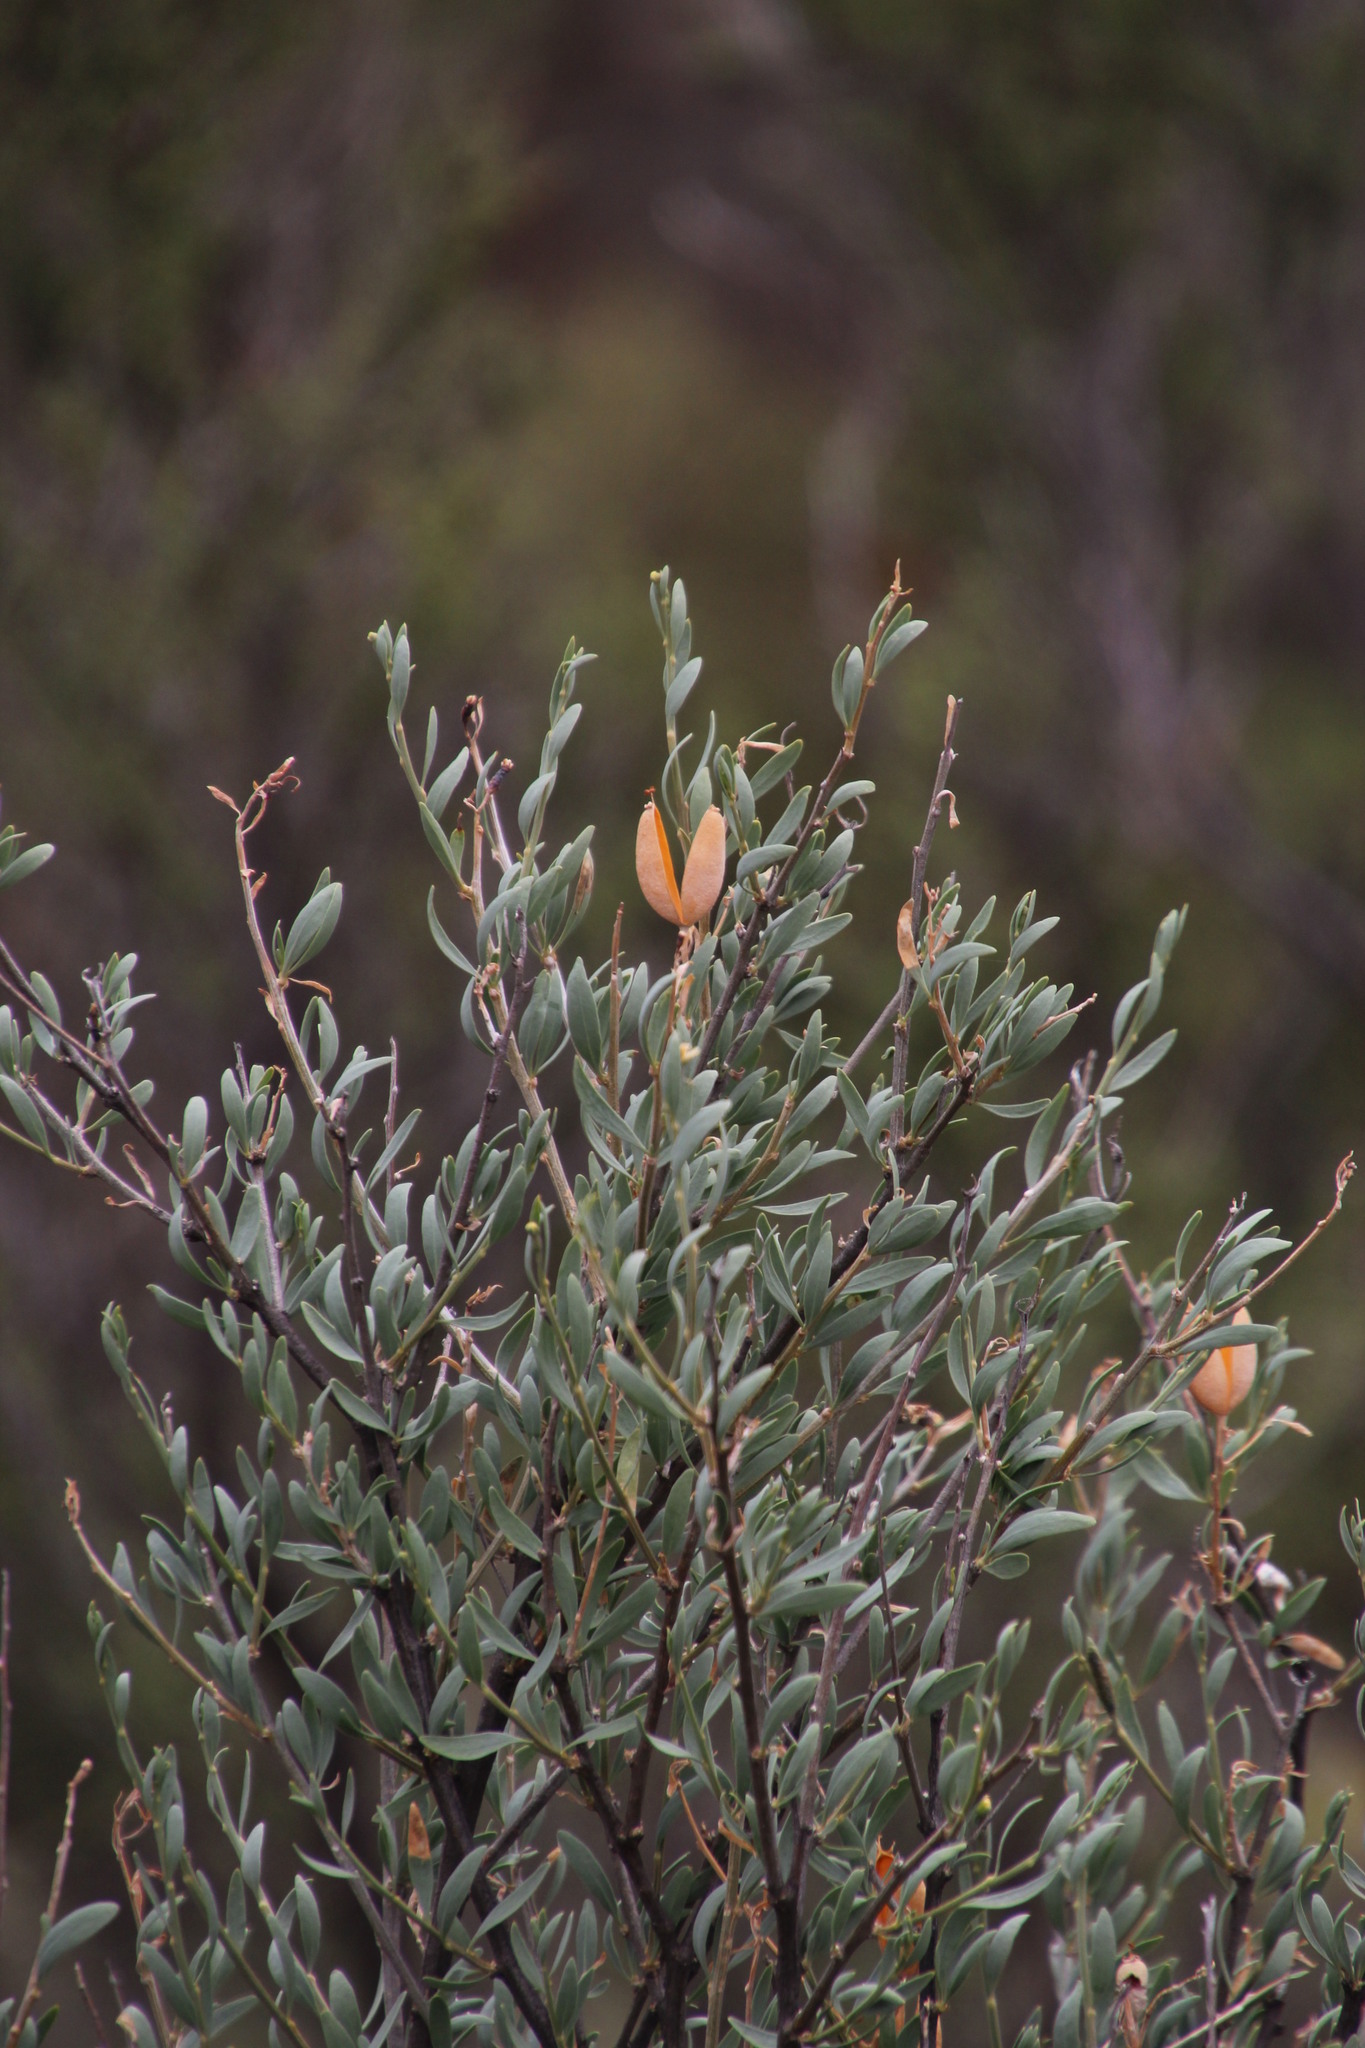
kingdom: Plantae
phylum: Tracheophyta
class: Magnoliopsida
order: Solanales
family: Montiniaceae
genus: Montinia
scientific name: Montinia caryophyllacea
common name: Wild clove-bush
